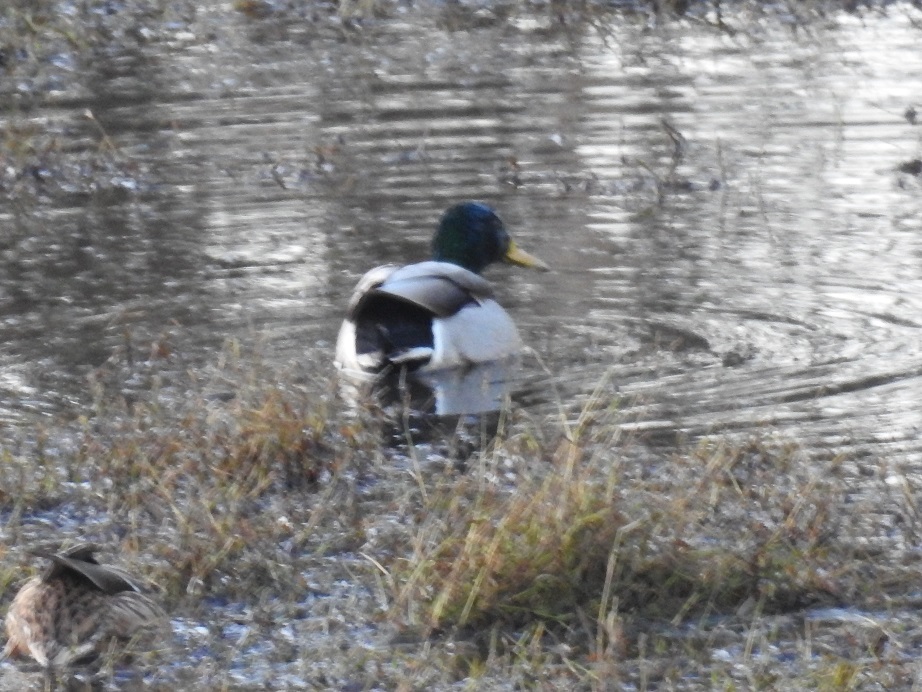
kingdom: Animalia
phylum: Chordata
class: Aves
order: Anseriformes
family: Anatidae
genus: Anas
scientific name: Anas platyrhynchos
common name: Mallard
